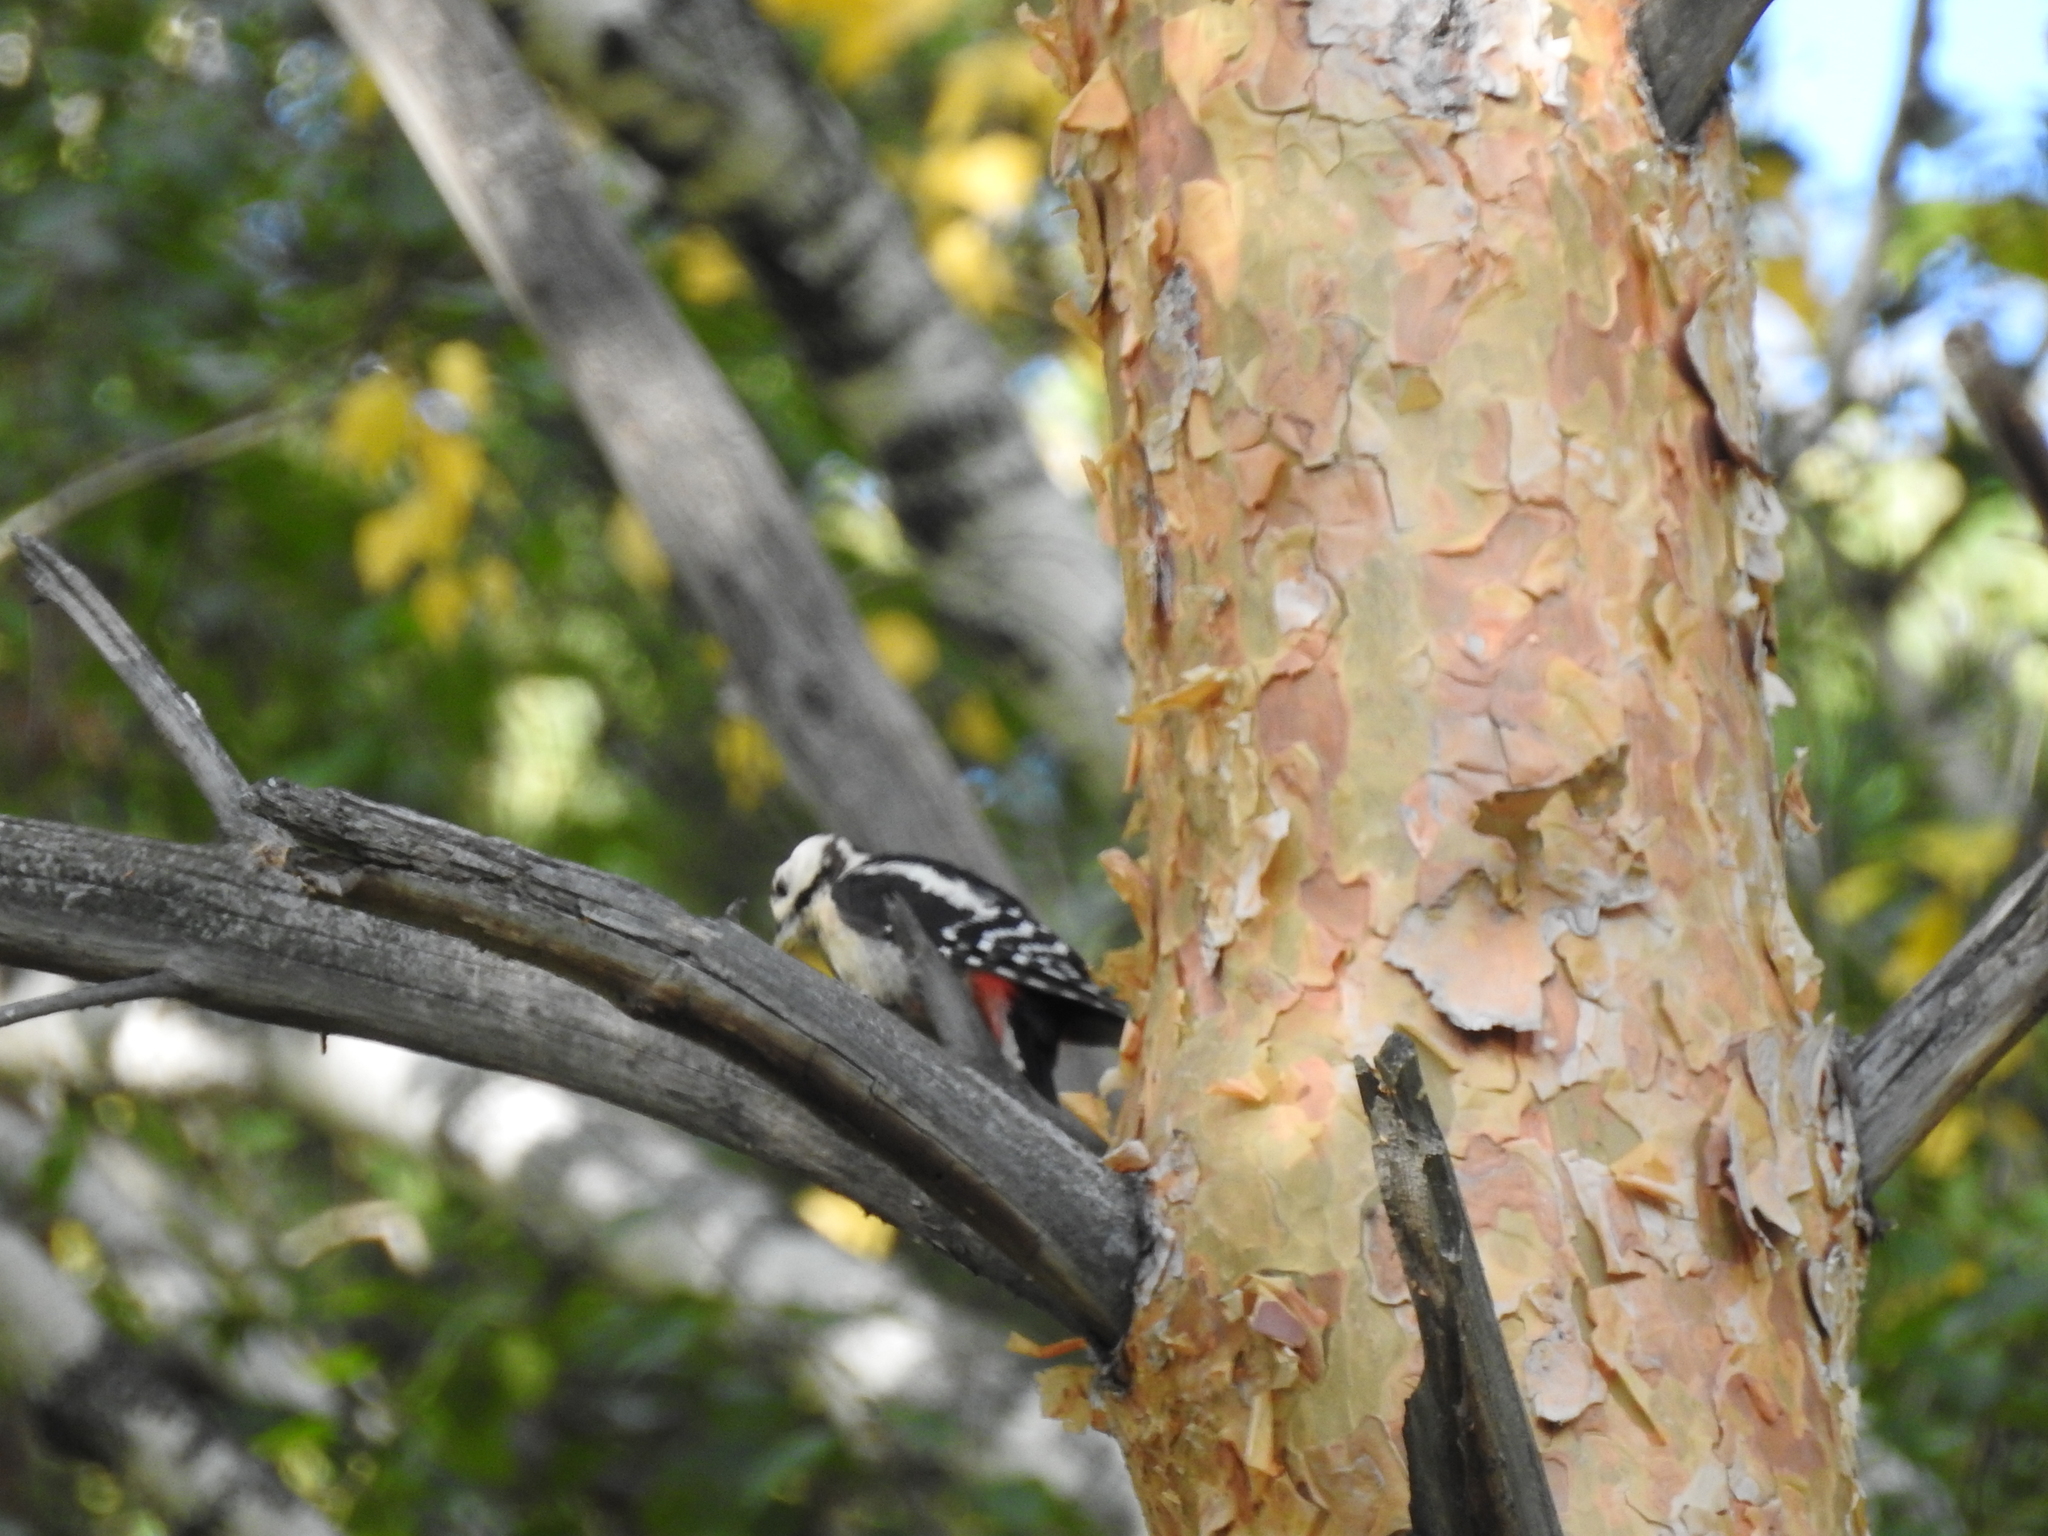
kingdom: Animalia
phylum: Chordata
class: Aves
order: Piciformes
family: Picidae
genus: Dendrocopos
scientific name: Dendrocopos major
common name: Great spotted woodpecker
